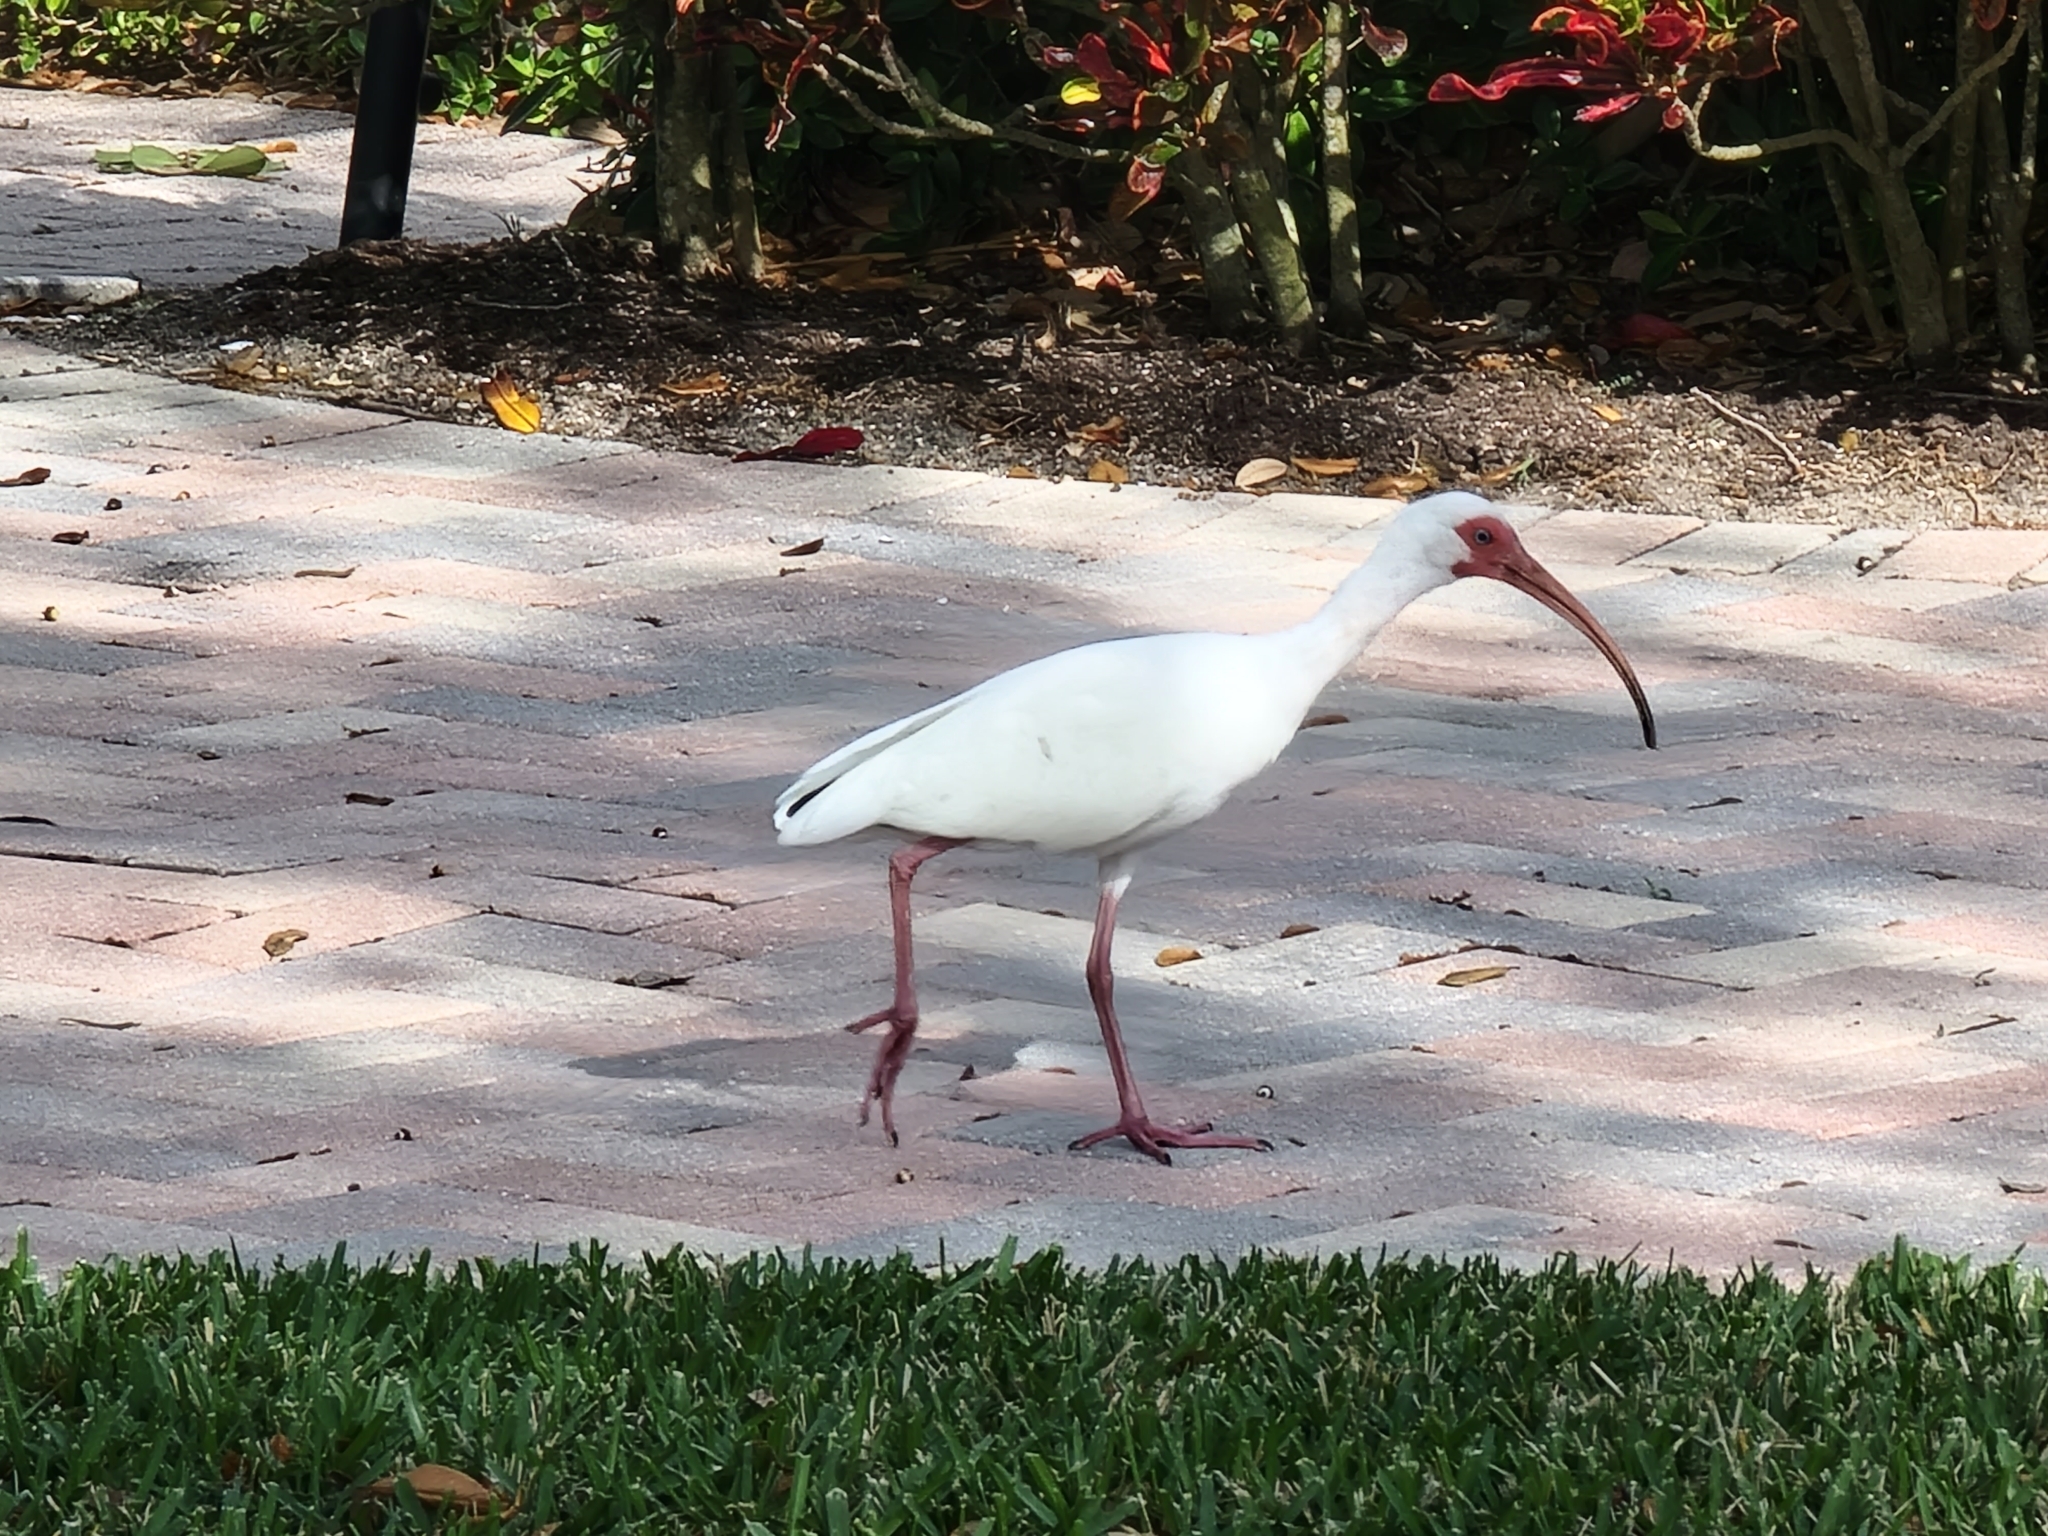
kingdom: Animalia
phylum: Chordata
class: Aves
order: Pelecaniformes
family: Threskiornithidae
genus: Eudocimus
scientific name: Eudocimus albus
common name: White ibis
